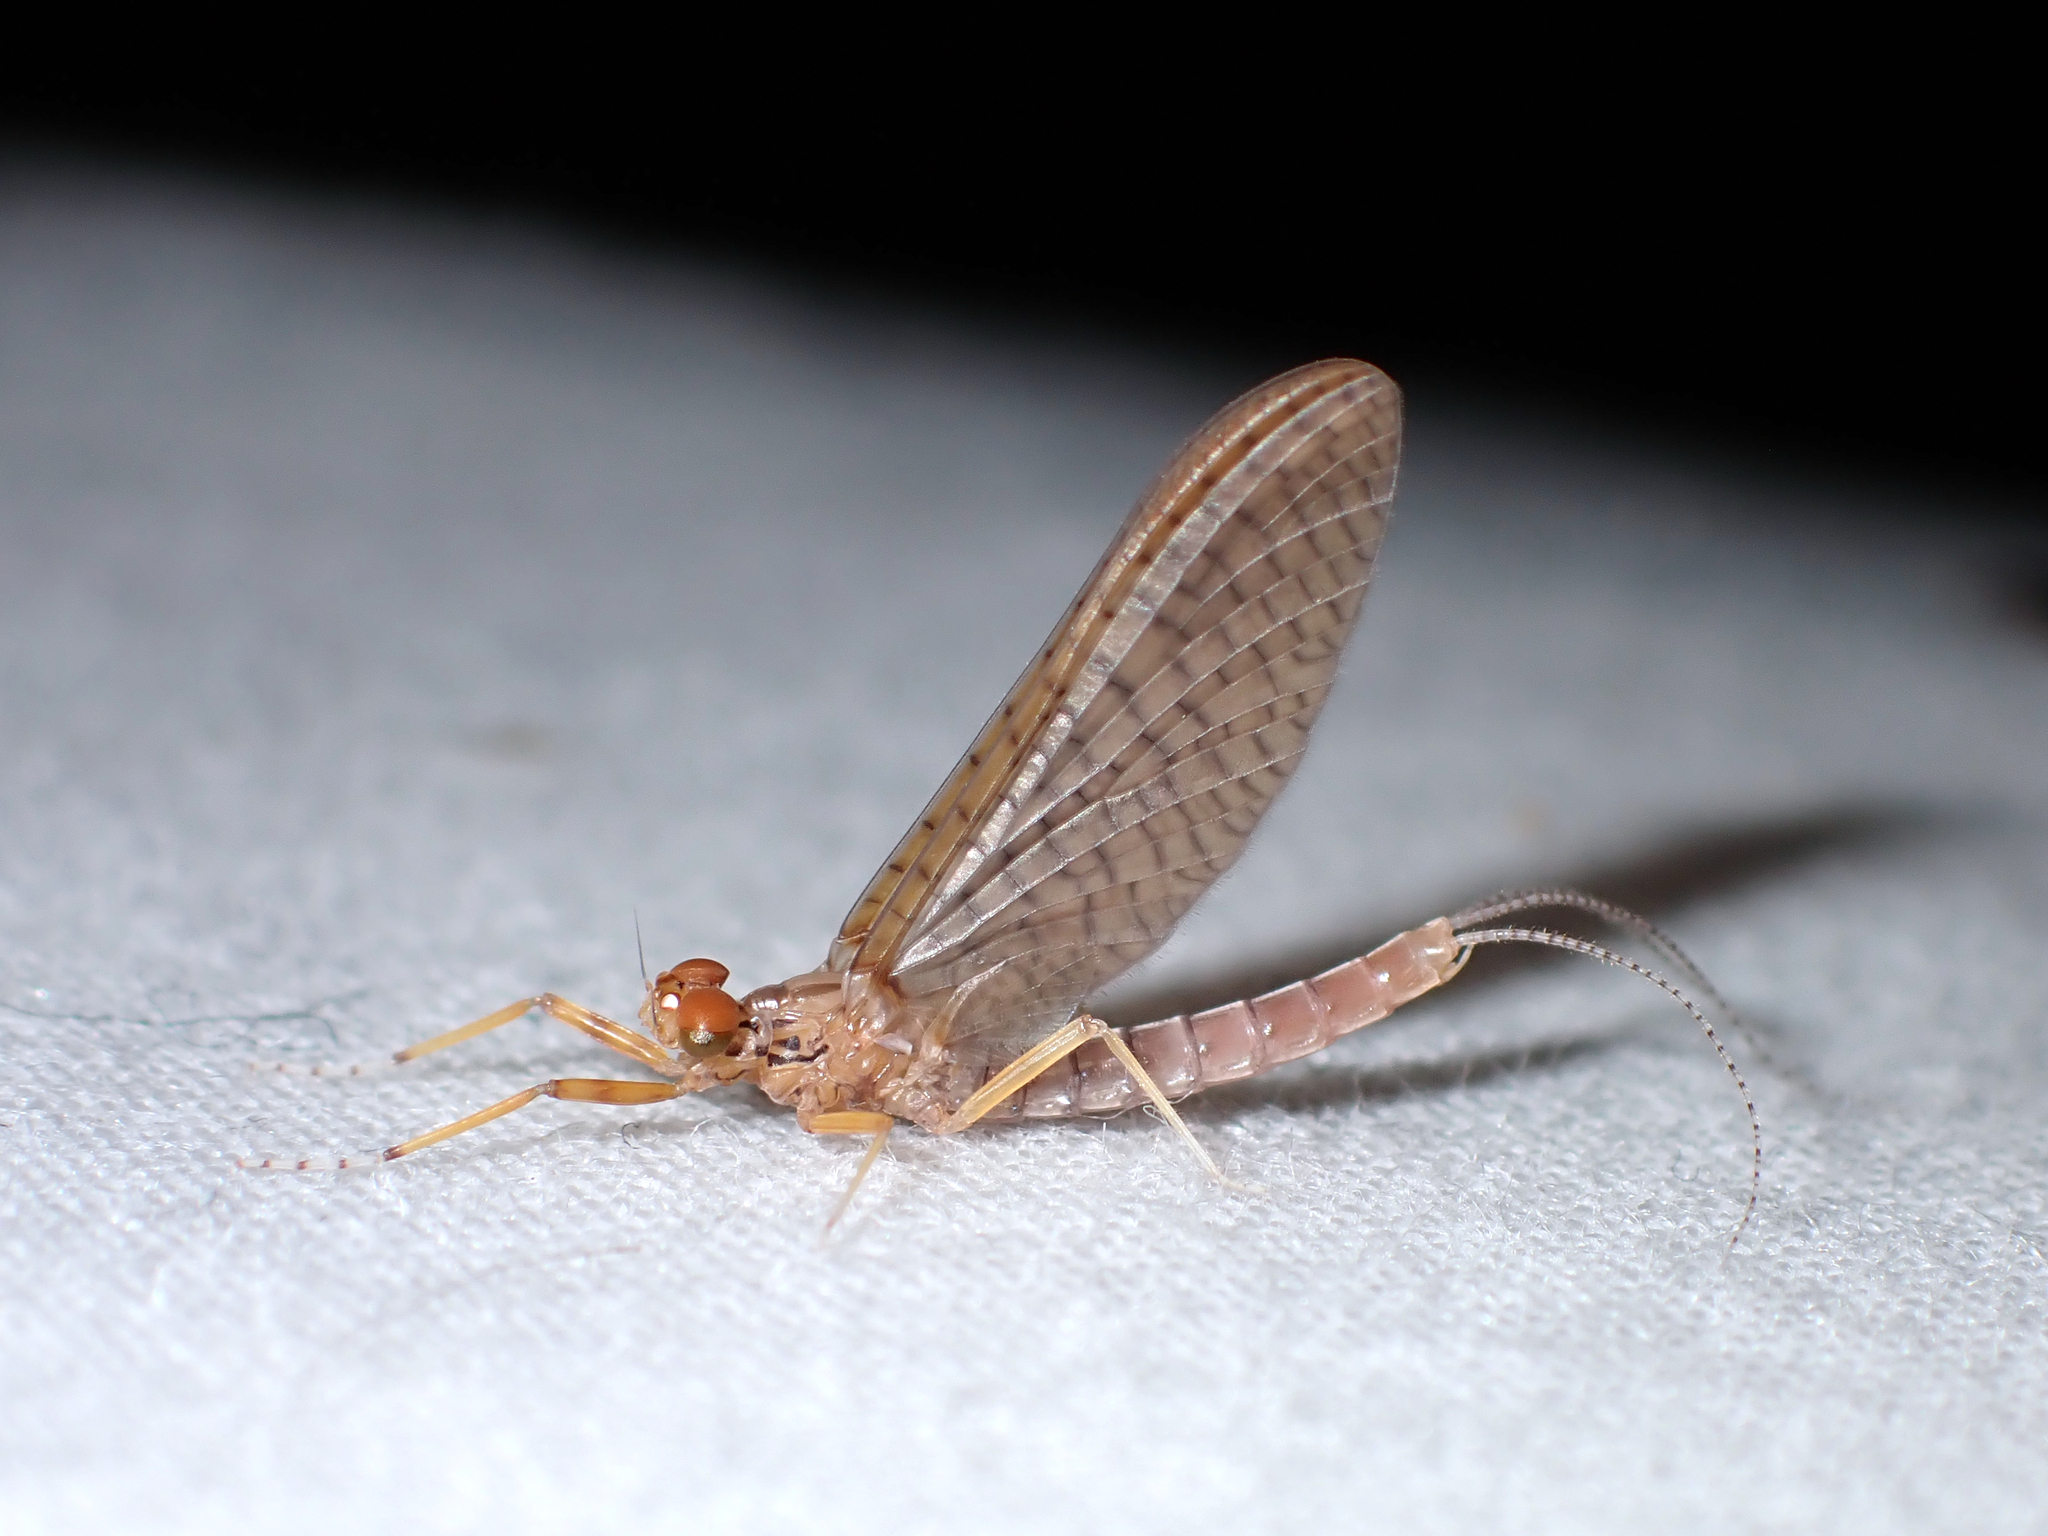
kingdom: Animalia
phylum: Arthropoda
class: Insecta
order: Ephemeroptera
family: Leptophlebiidae
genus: Acanthophlebia
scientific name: Acanthophlebia cruentata
